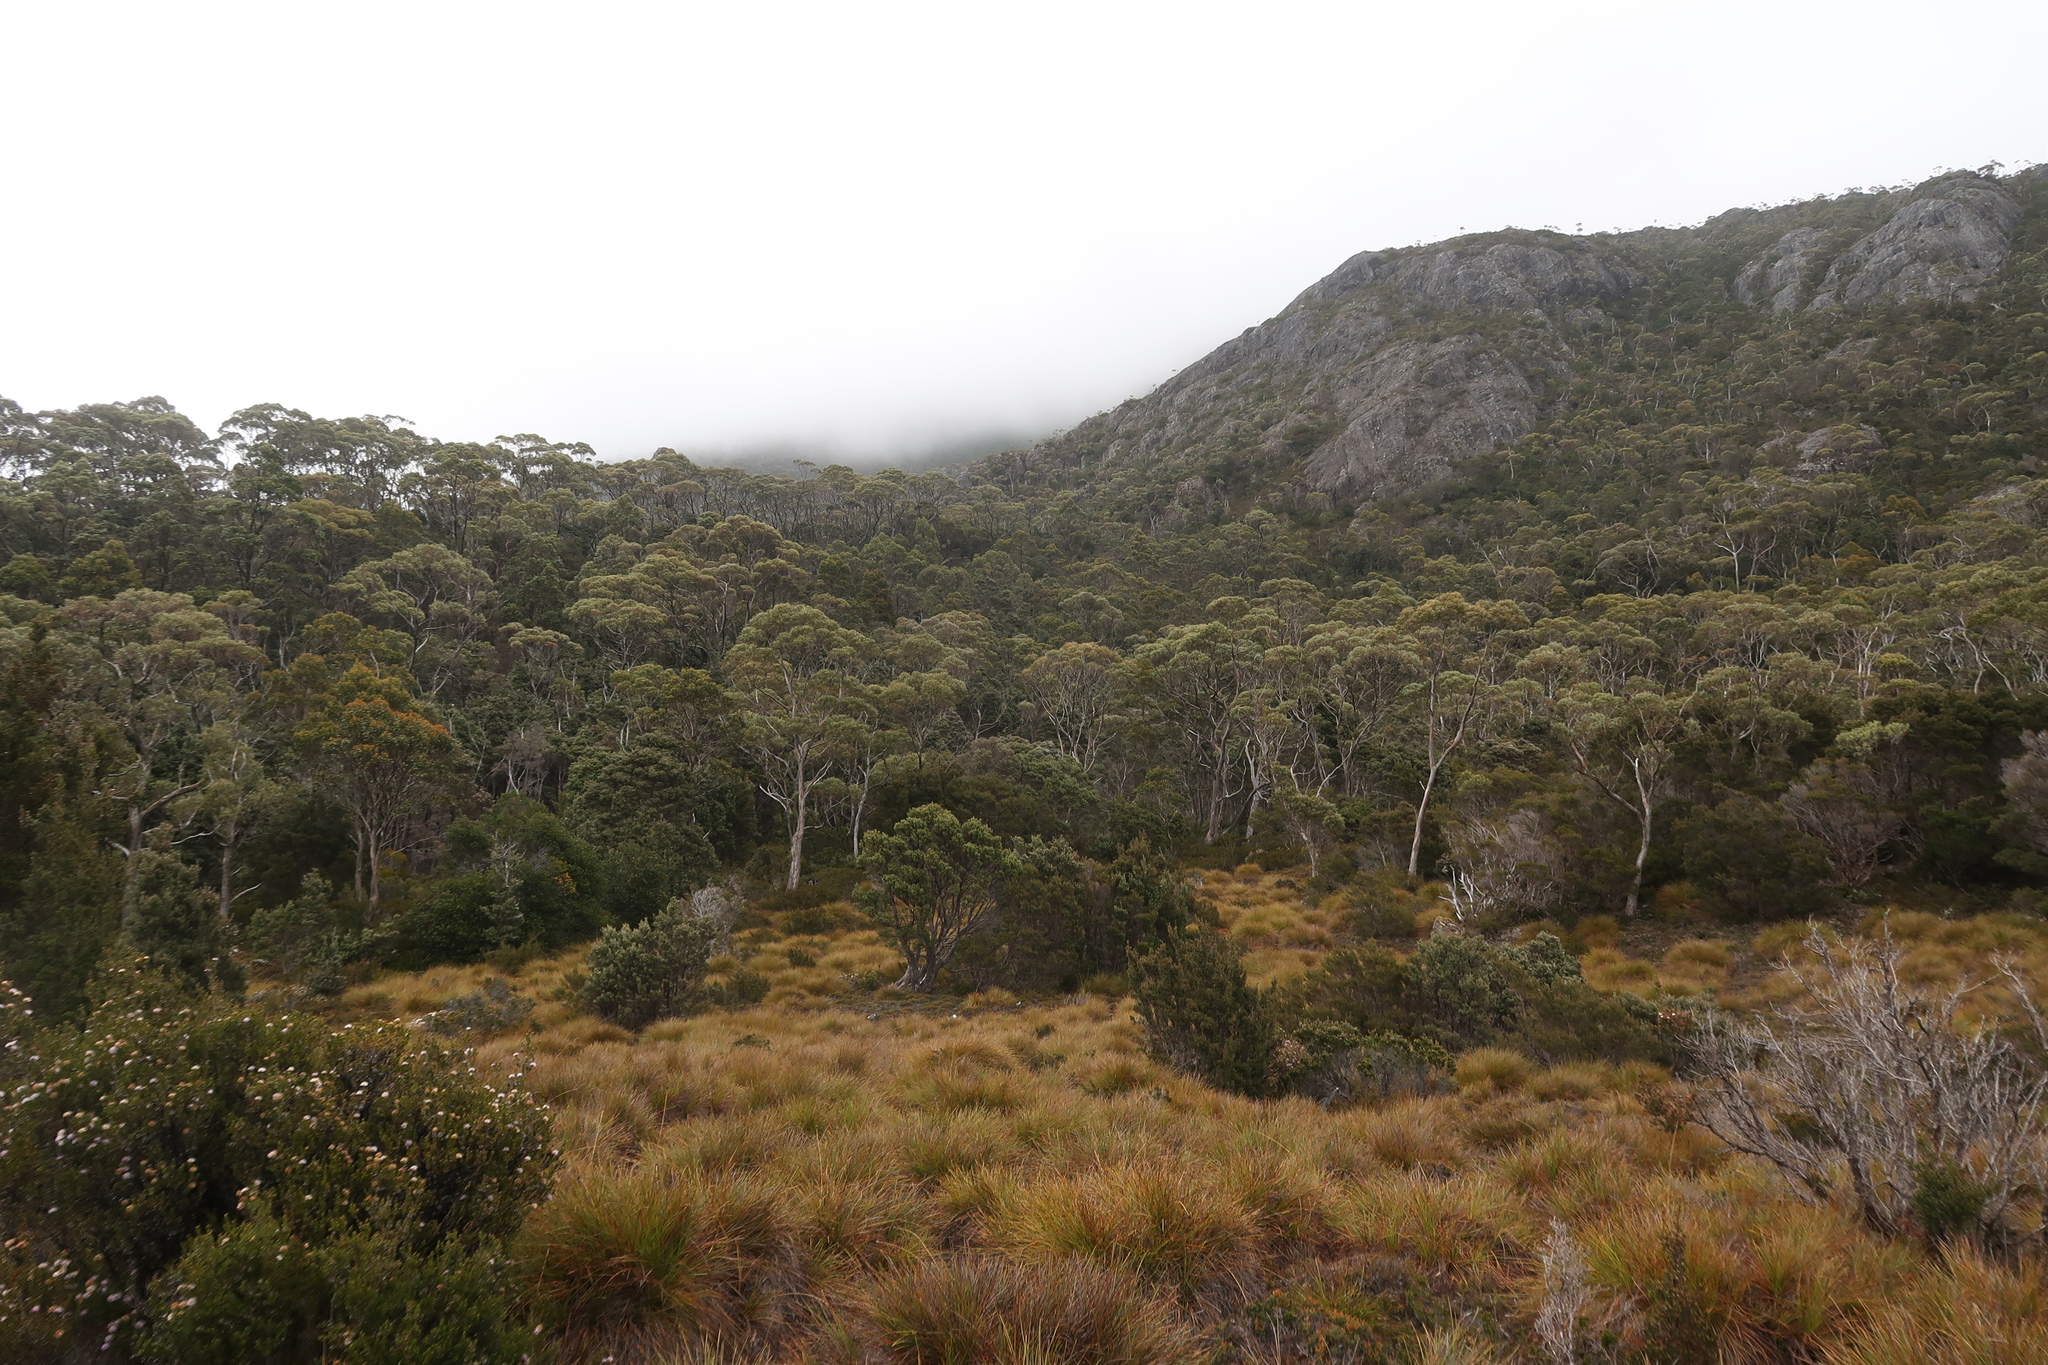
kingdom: Plantae
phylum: Tracheophyta
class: Liliopsida
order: Poales
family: Cyperaceae
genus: Gymnoschoenus
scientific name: Gymnoschoenus sphaerocephalus
